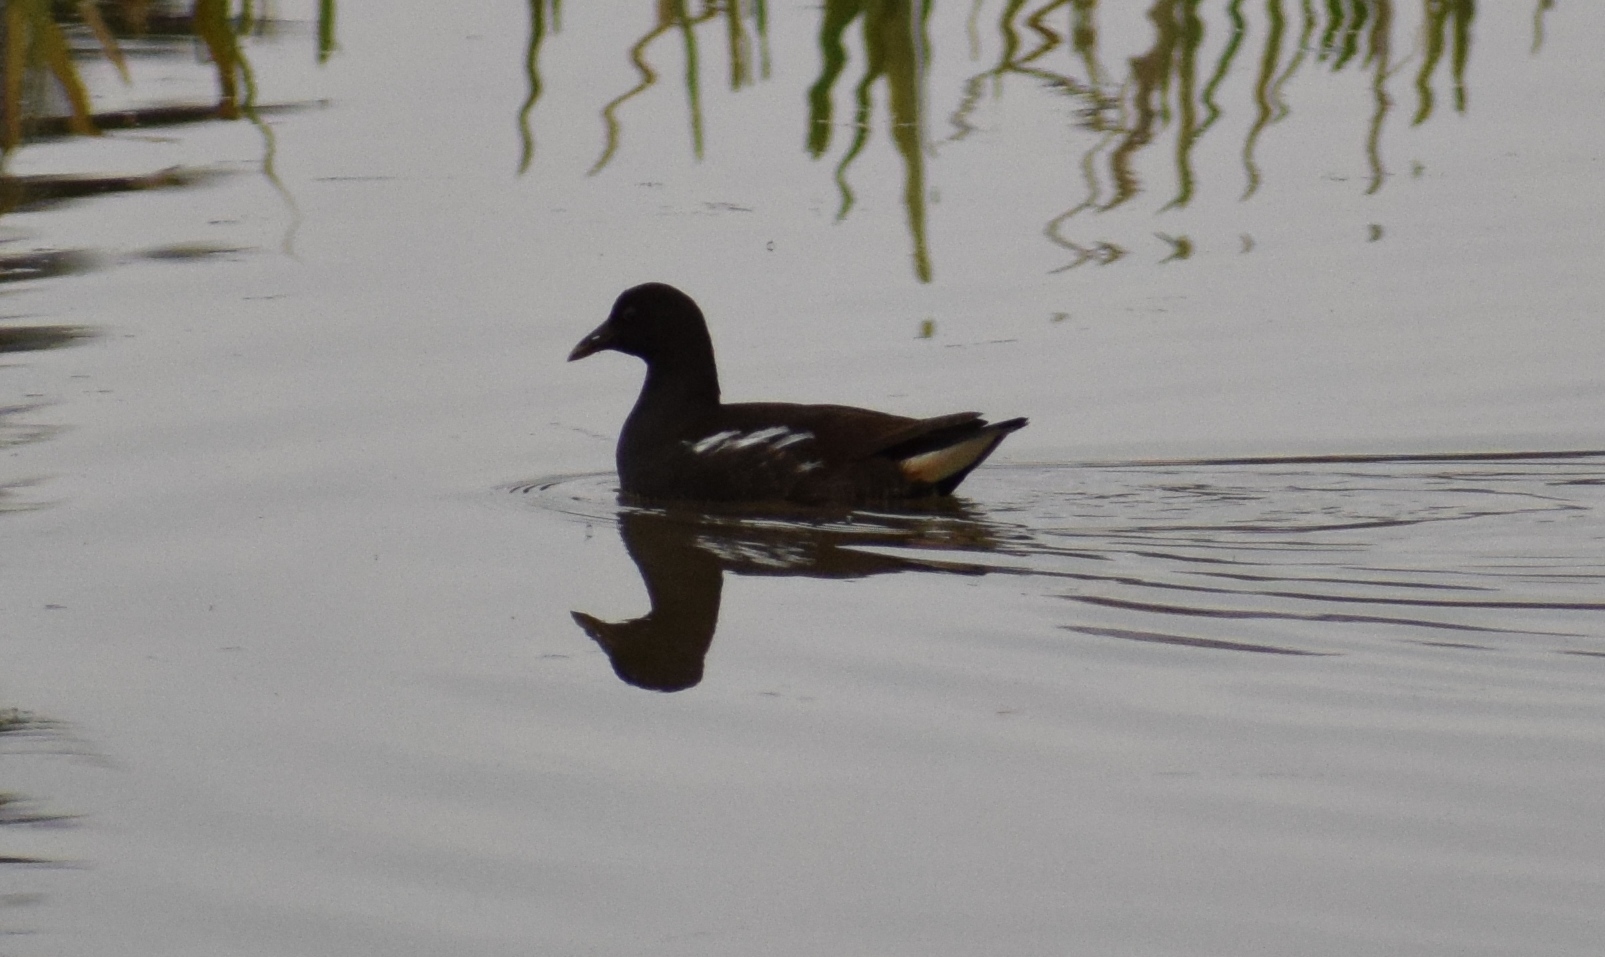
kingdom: Animalia
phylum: Chordata
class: Aves
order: Gruiformes
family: Rallidae
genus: Gallinula
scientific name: Gallinula chloropus
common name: Common moorhen
